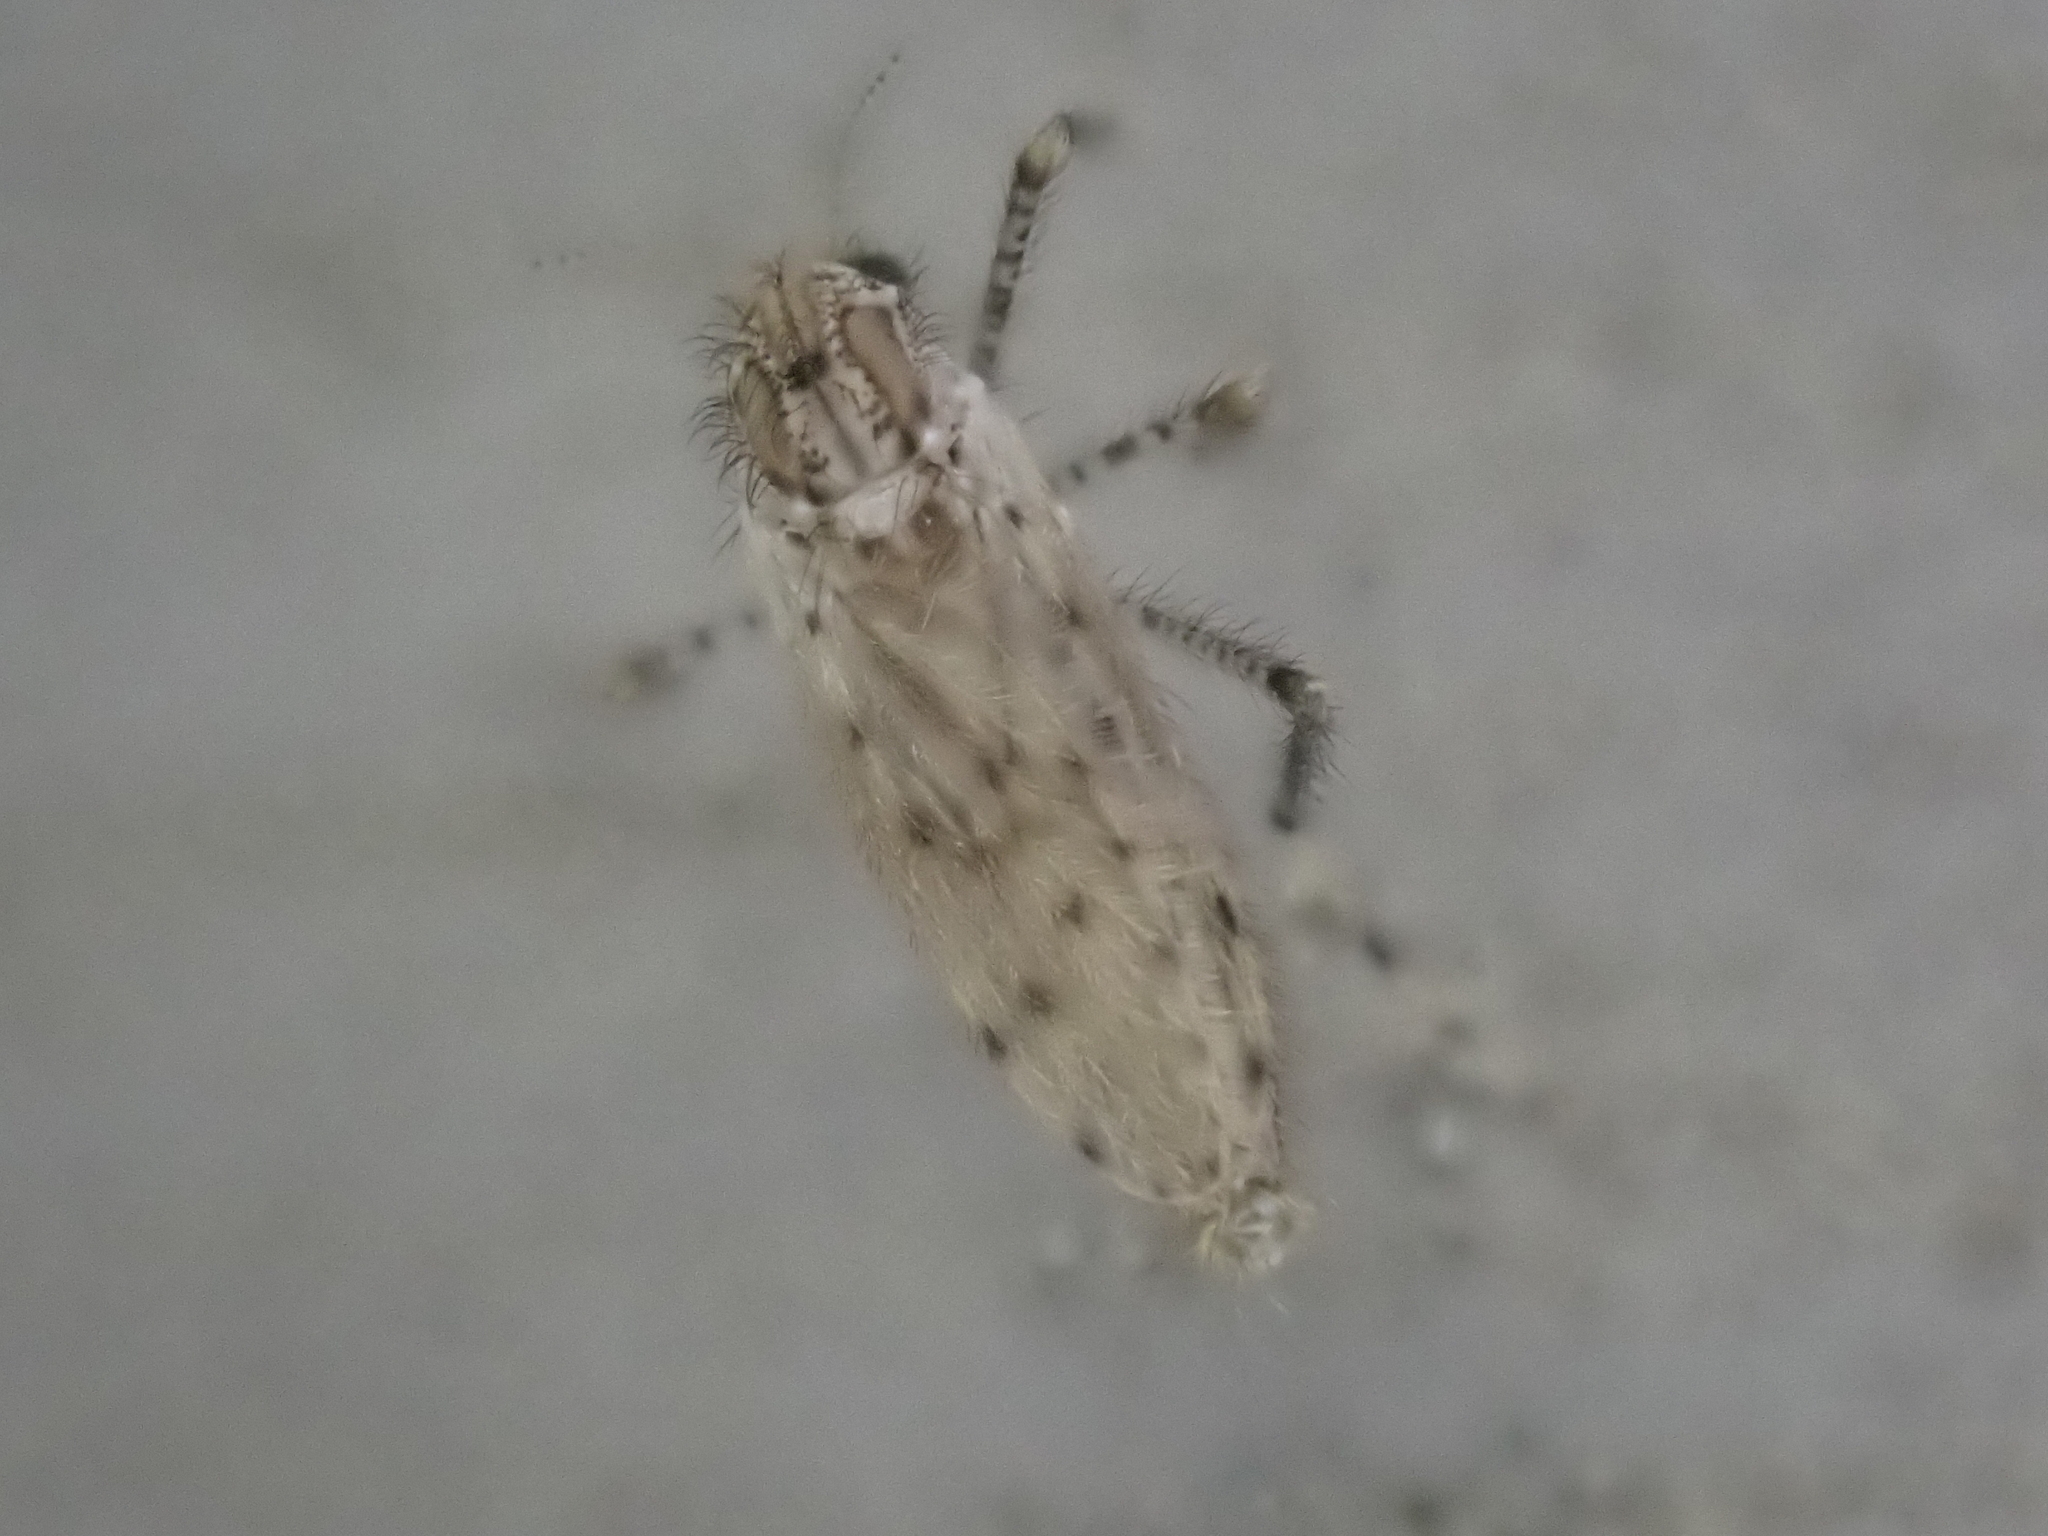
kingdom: Animalia
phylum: Arthropoda
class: Insecta
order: Diptera
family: Chaoboridae
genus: Chaoborus
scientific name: Chaoborus punctipennis
